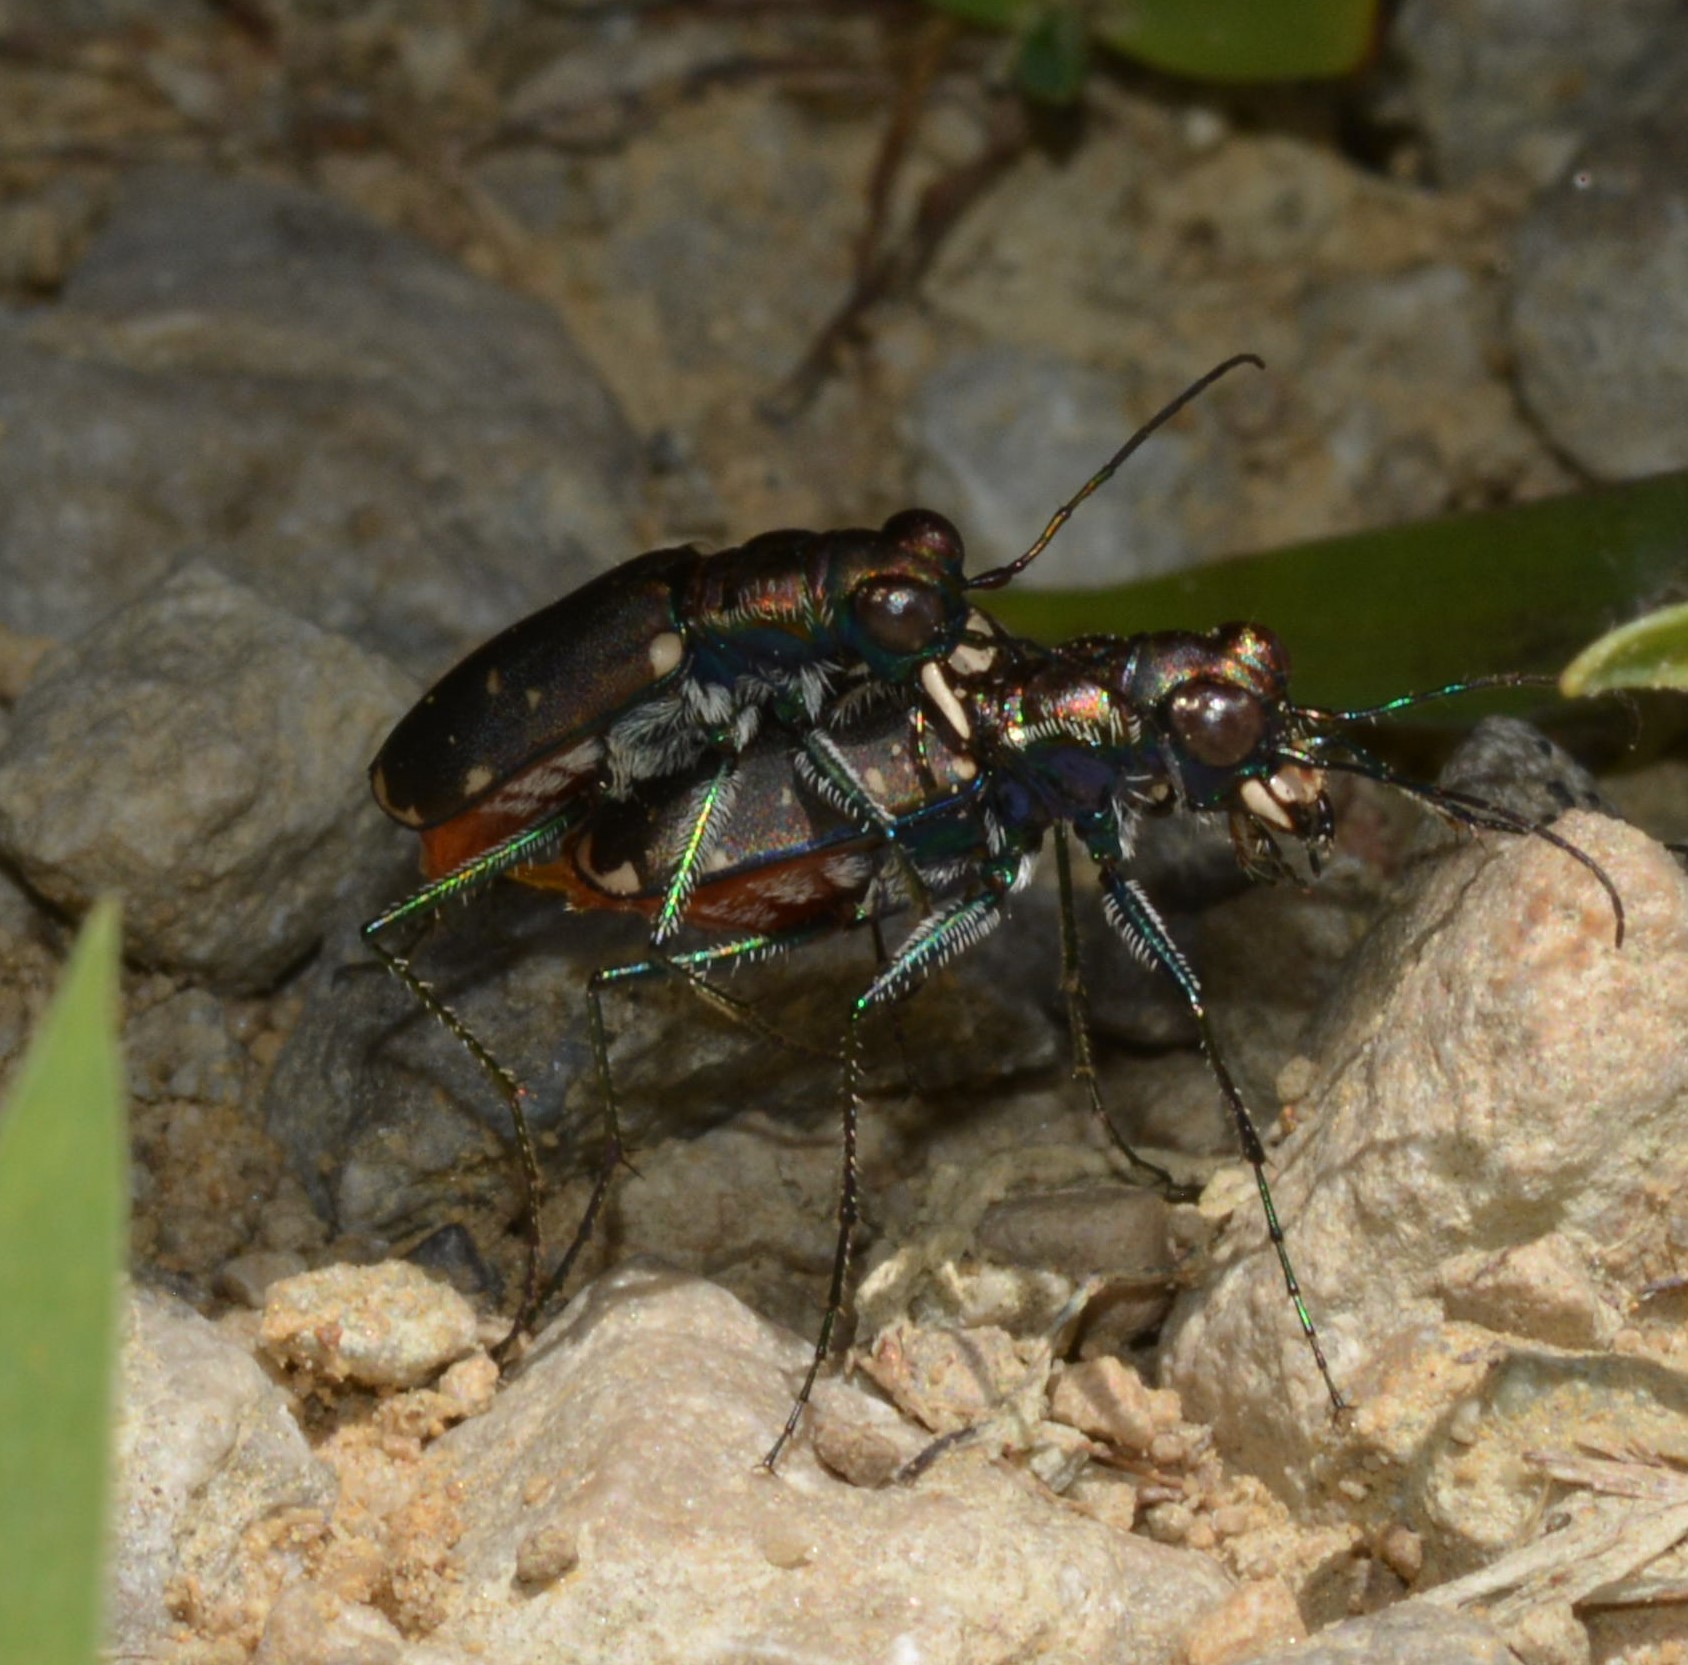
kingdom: Animalia
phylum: Arthropoda
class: Insecta
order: Coleoptera
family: Carabidae
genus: Cicindela
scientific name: Cicindela rufiventris
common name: Eastern red-bellied tiger beetle
